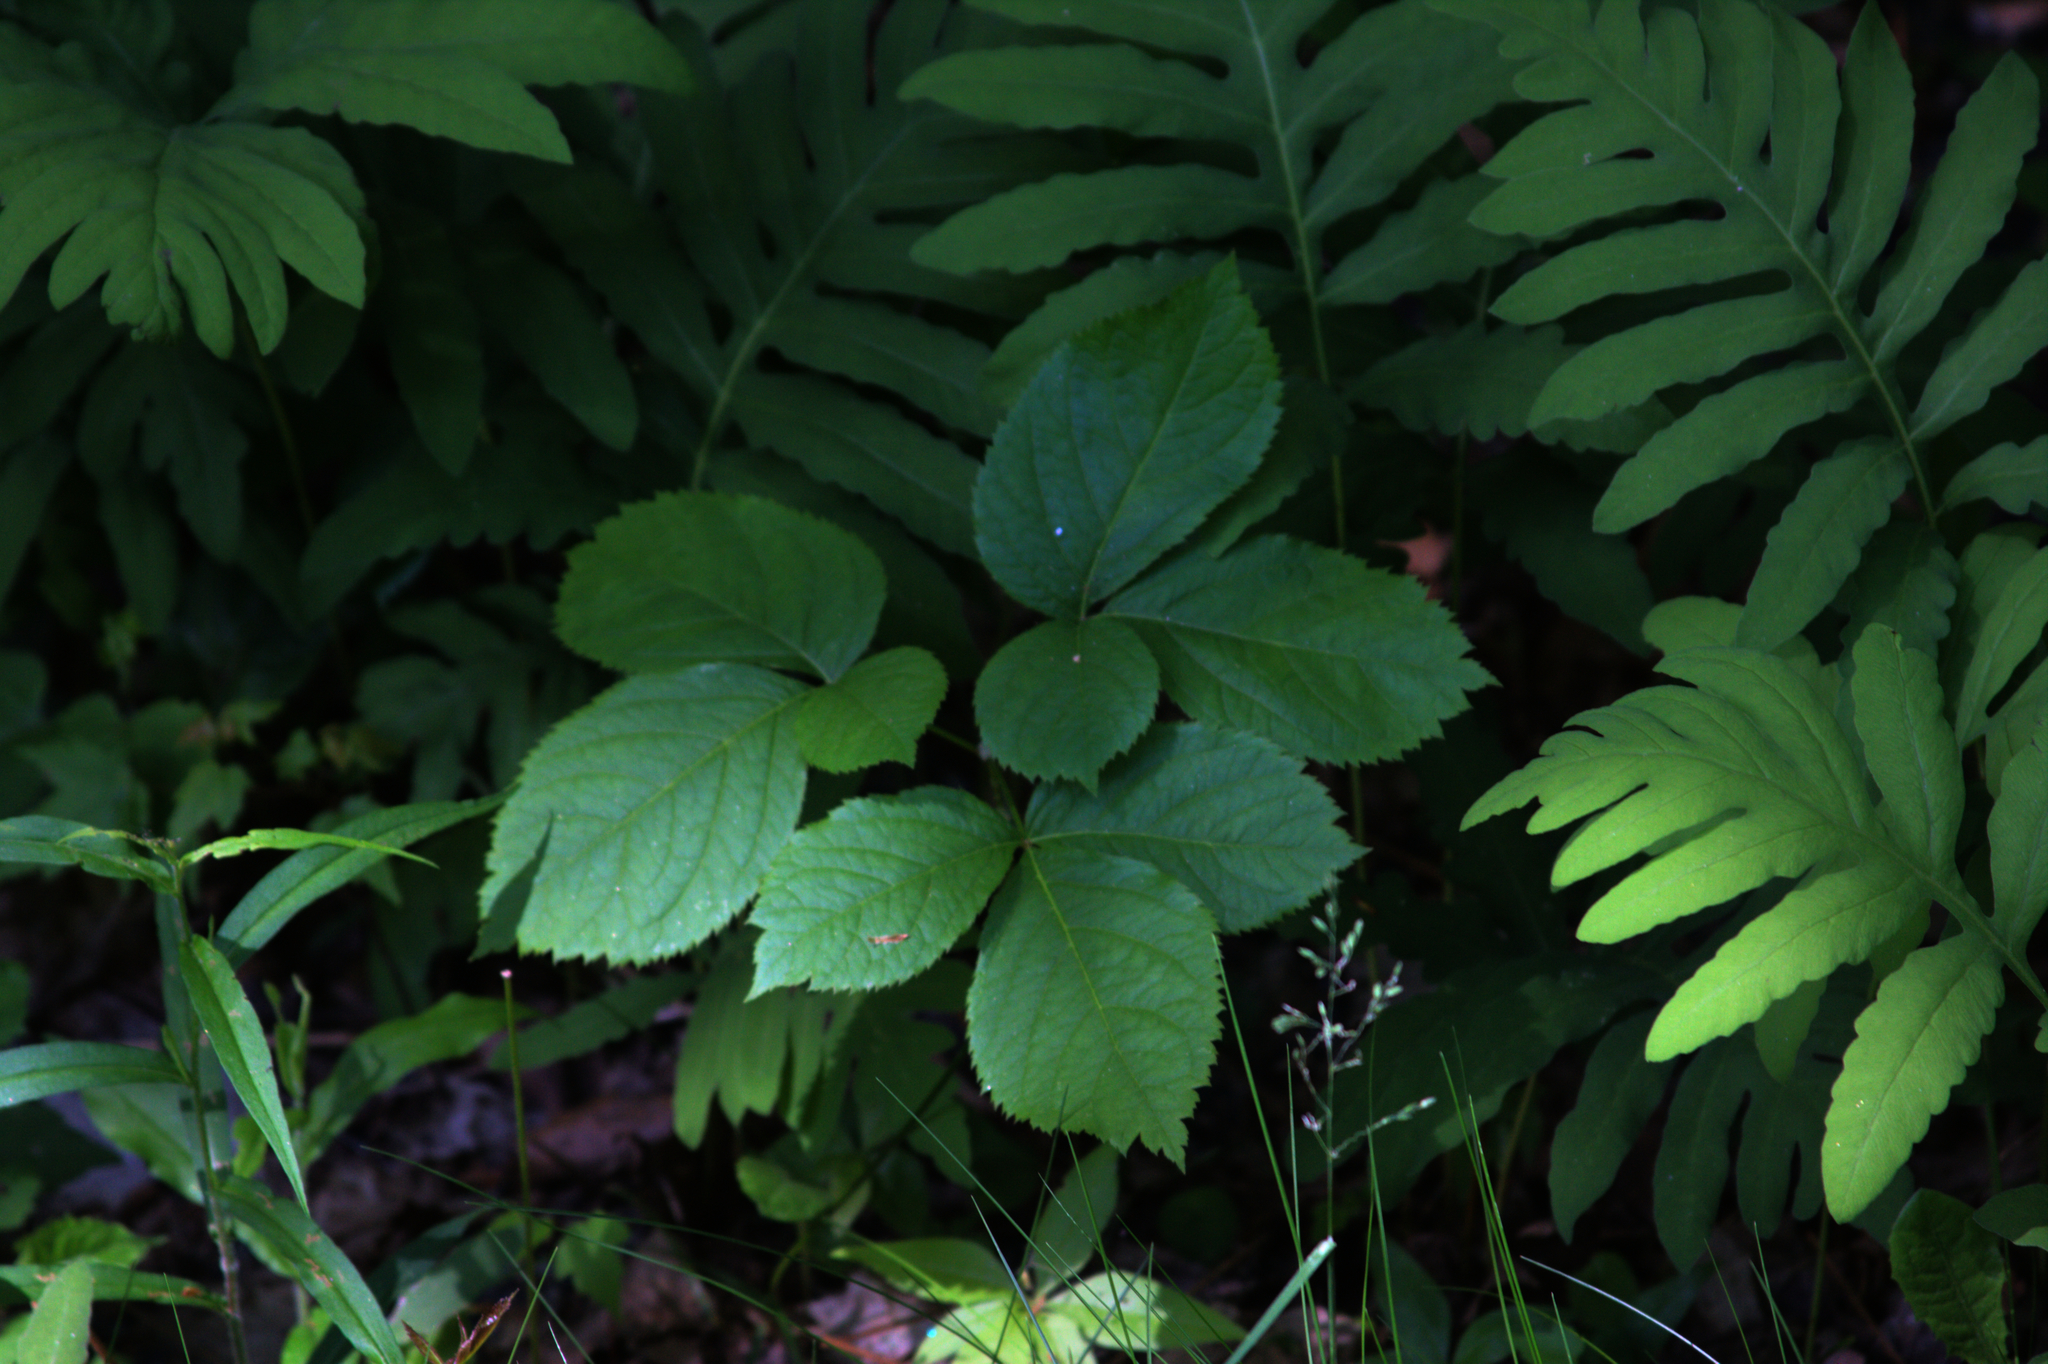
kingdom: Plantae
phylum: Tracheophyta
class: Magnoliopsida
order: Apiales
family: Araliaceae
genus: Aralia
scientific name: Aralia nudicaulis
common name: Wild sarsaparilla
